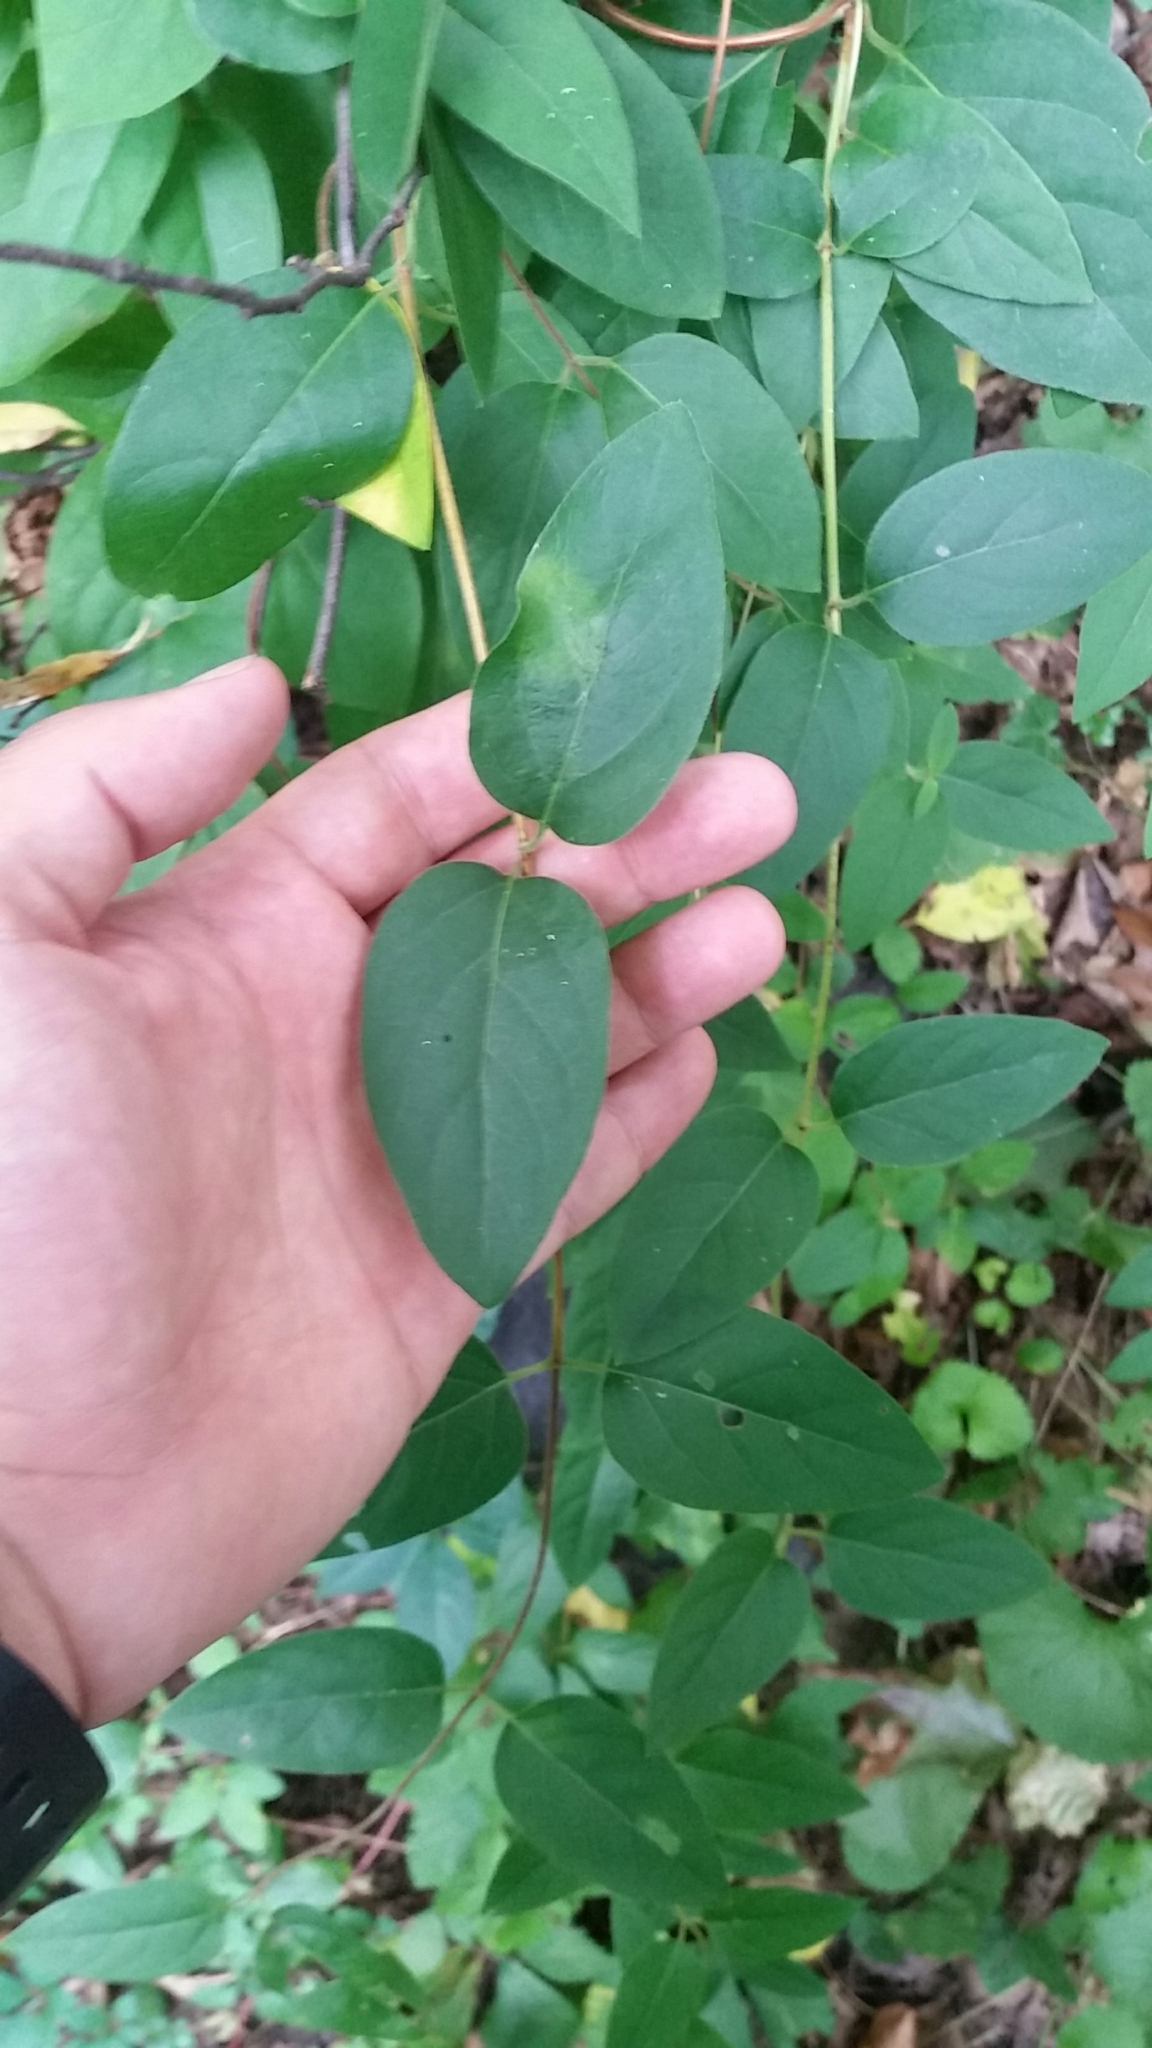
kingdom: Plantae
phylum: Tracheophyta
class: Magnoliopsida
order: Dipsacales
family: Caprifoliaceae
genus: Lonicera
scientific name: Lonicera japonica
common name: Japanese honeysuckle
